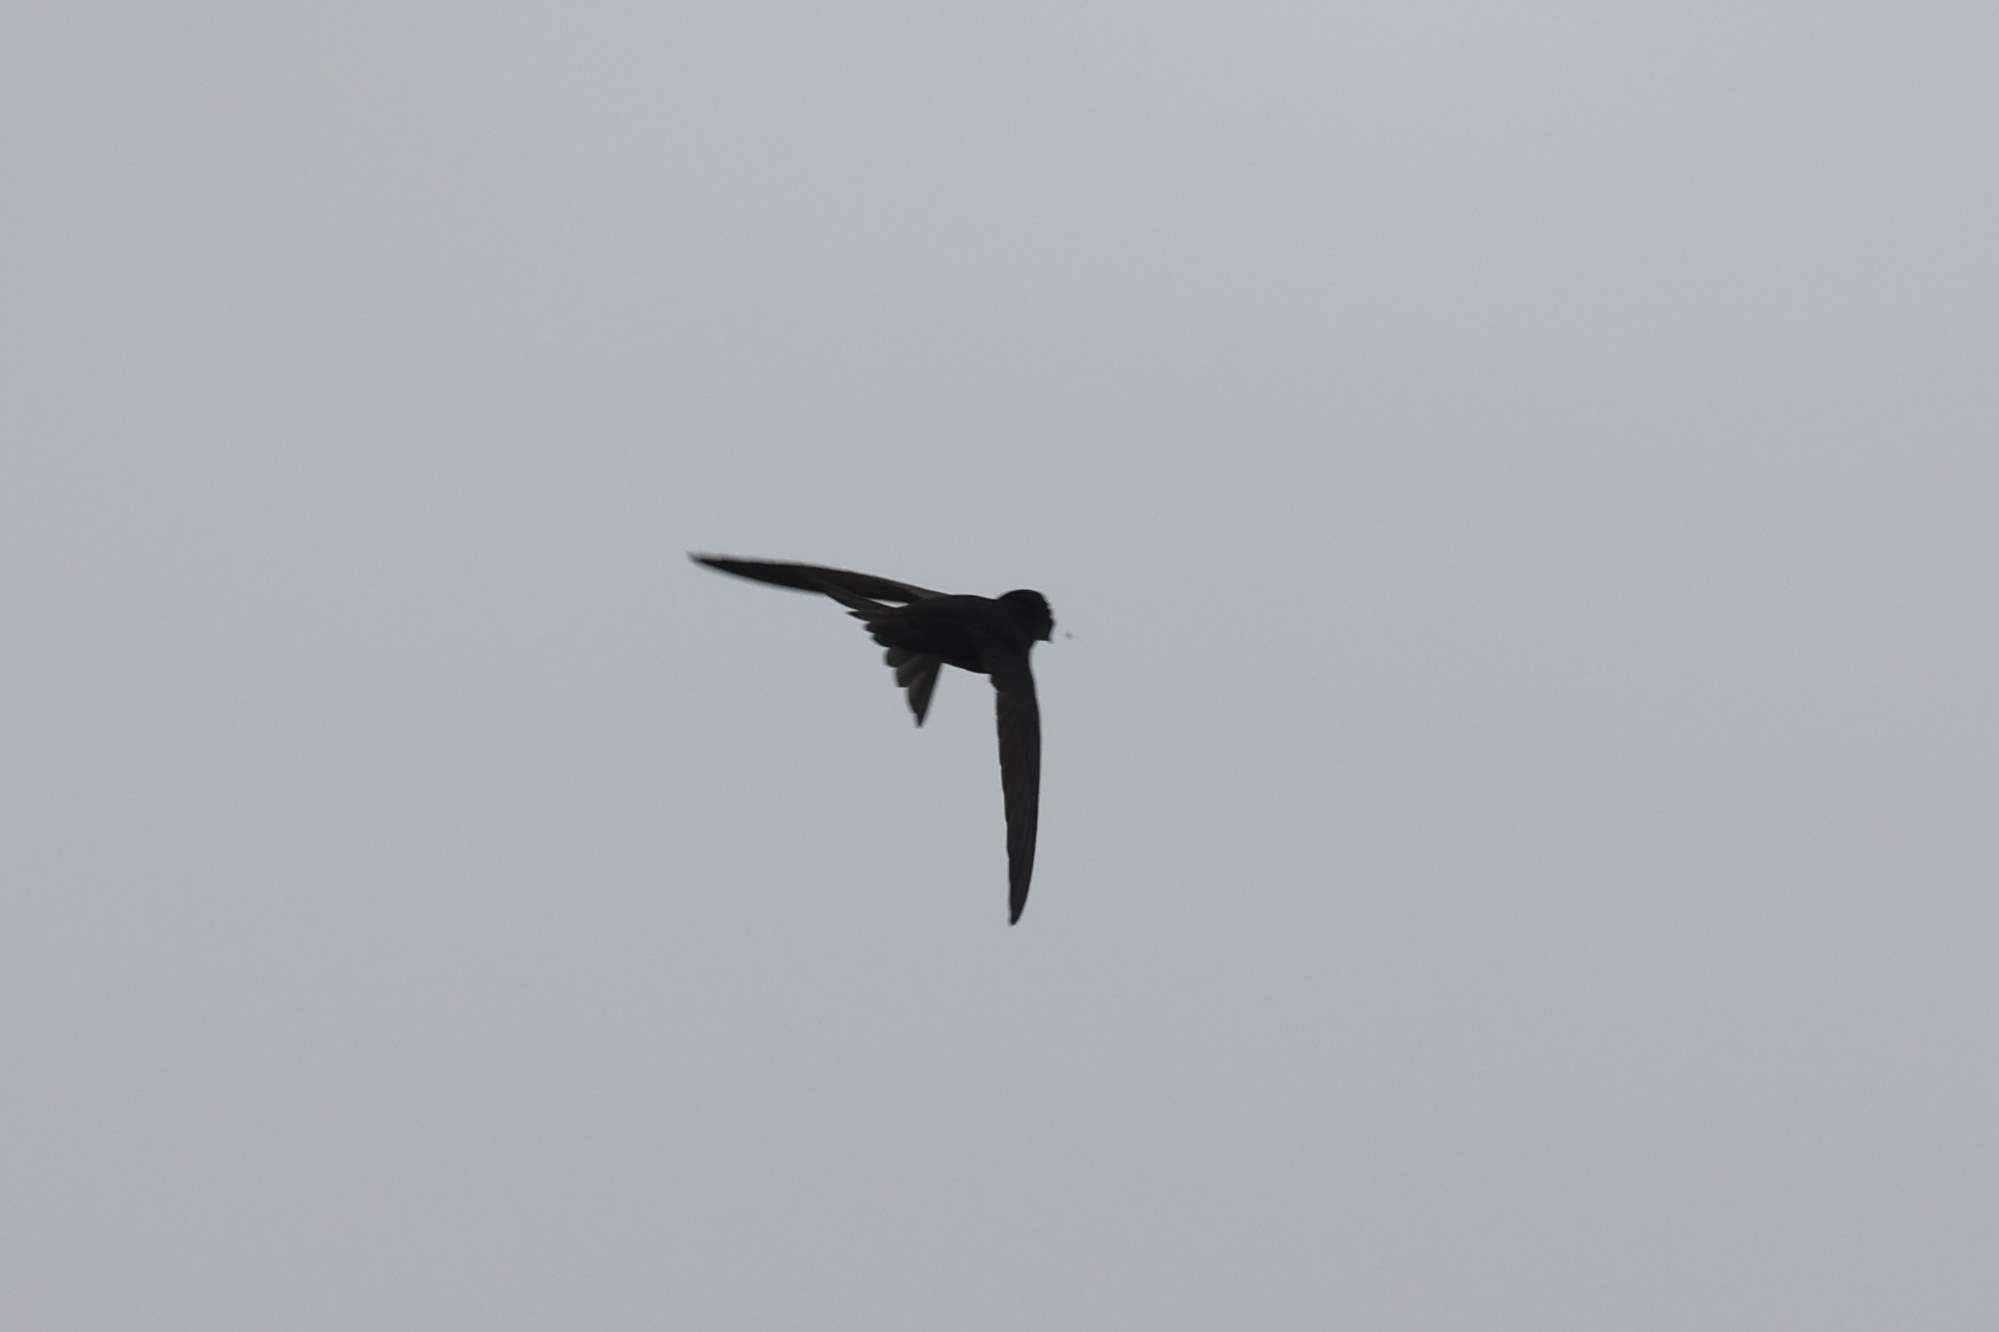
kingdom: Animalia
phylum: Chordata
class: Aves
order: Apodiformes
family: Apodidae
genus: Apus
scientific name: Apus apus
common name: Common swift
